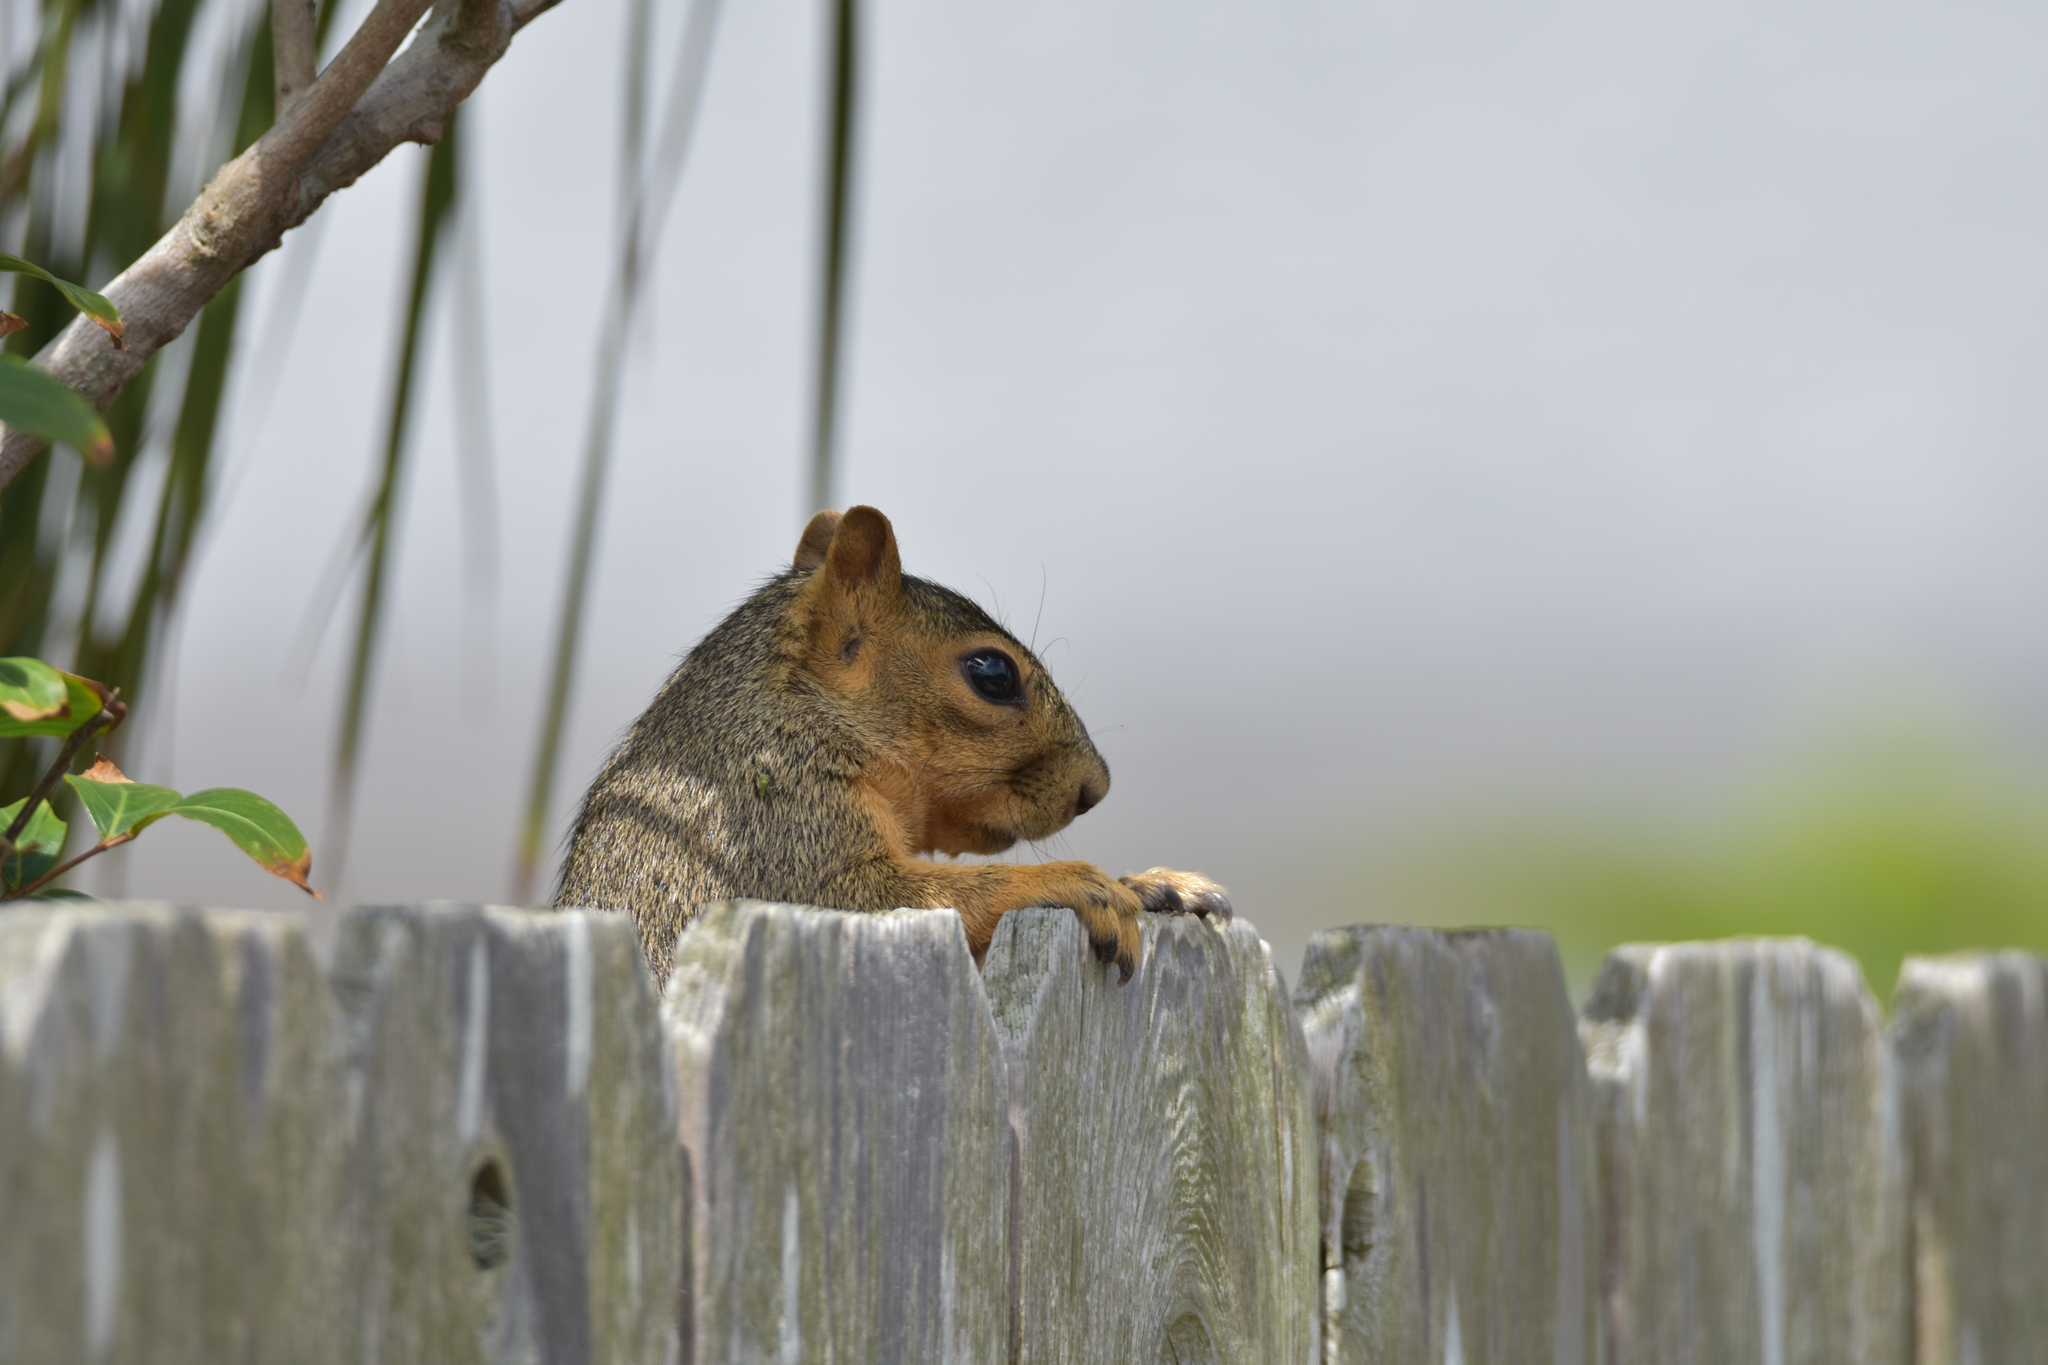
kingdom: Animalia
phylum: Chordata
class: Mammalia
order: Rodentia
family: Sciuridae
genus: Sciurus
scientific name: Sciurus niger
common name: Fox squirrel
